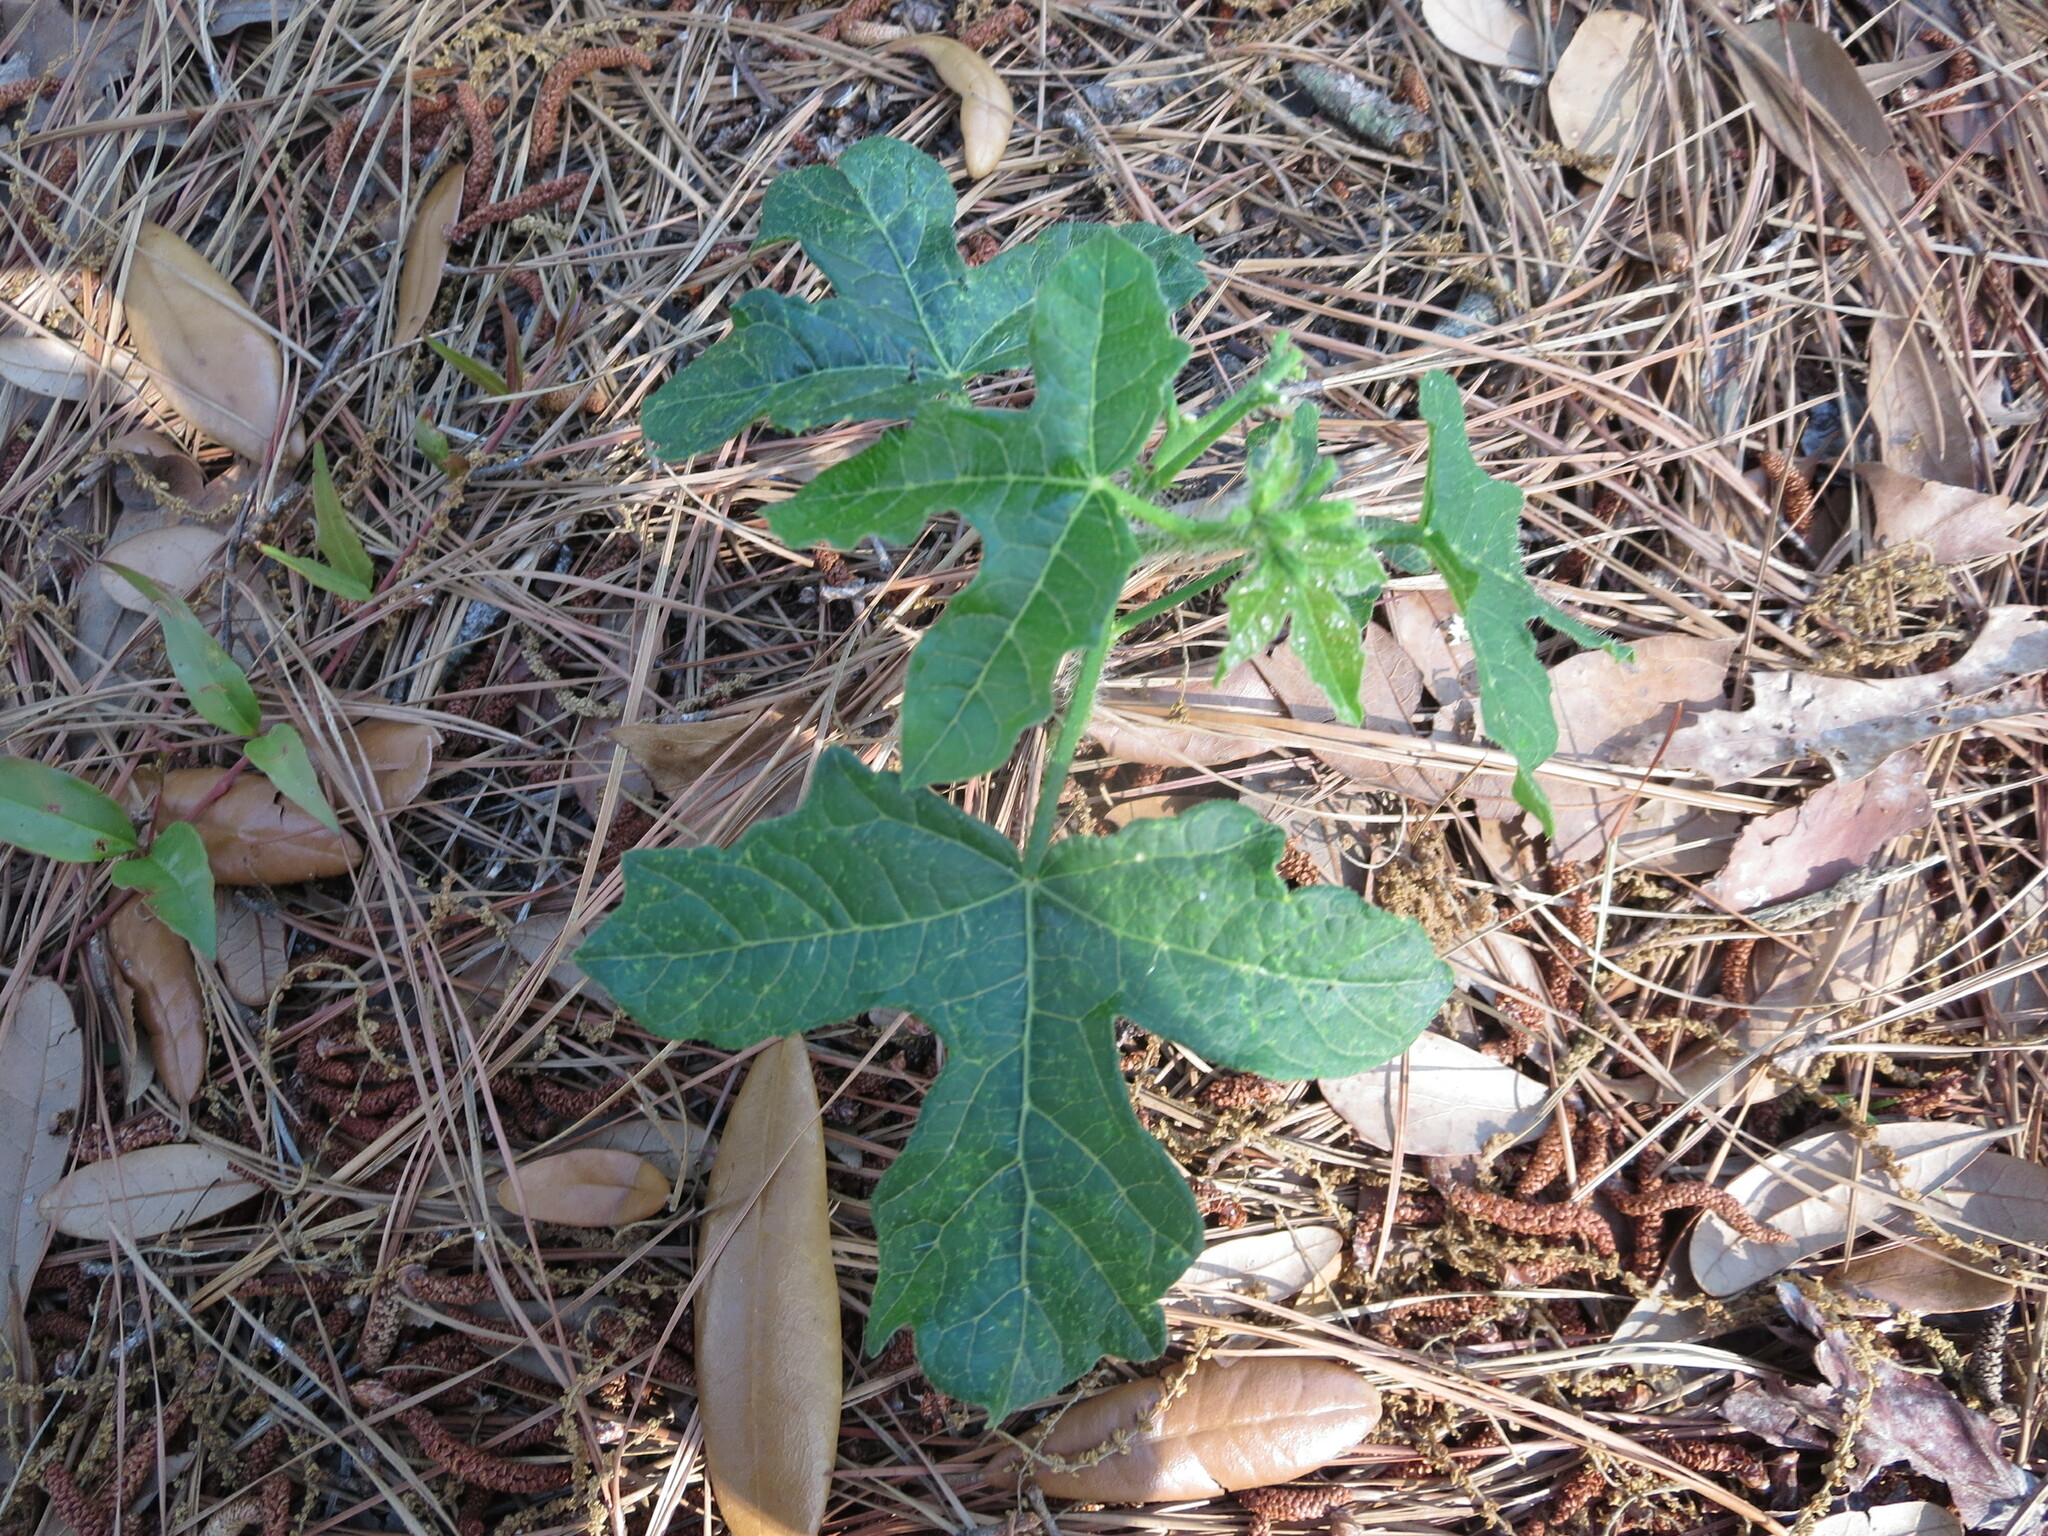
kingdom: Plantae
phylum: Tracheophyta
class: Magnoliopsida
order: Malpighiales
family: Euphorbiaceae
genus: Cnidoscolus
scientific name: Cnidoscolus stimulosus
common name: Bull-nettle
